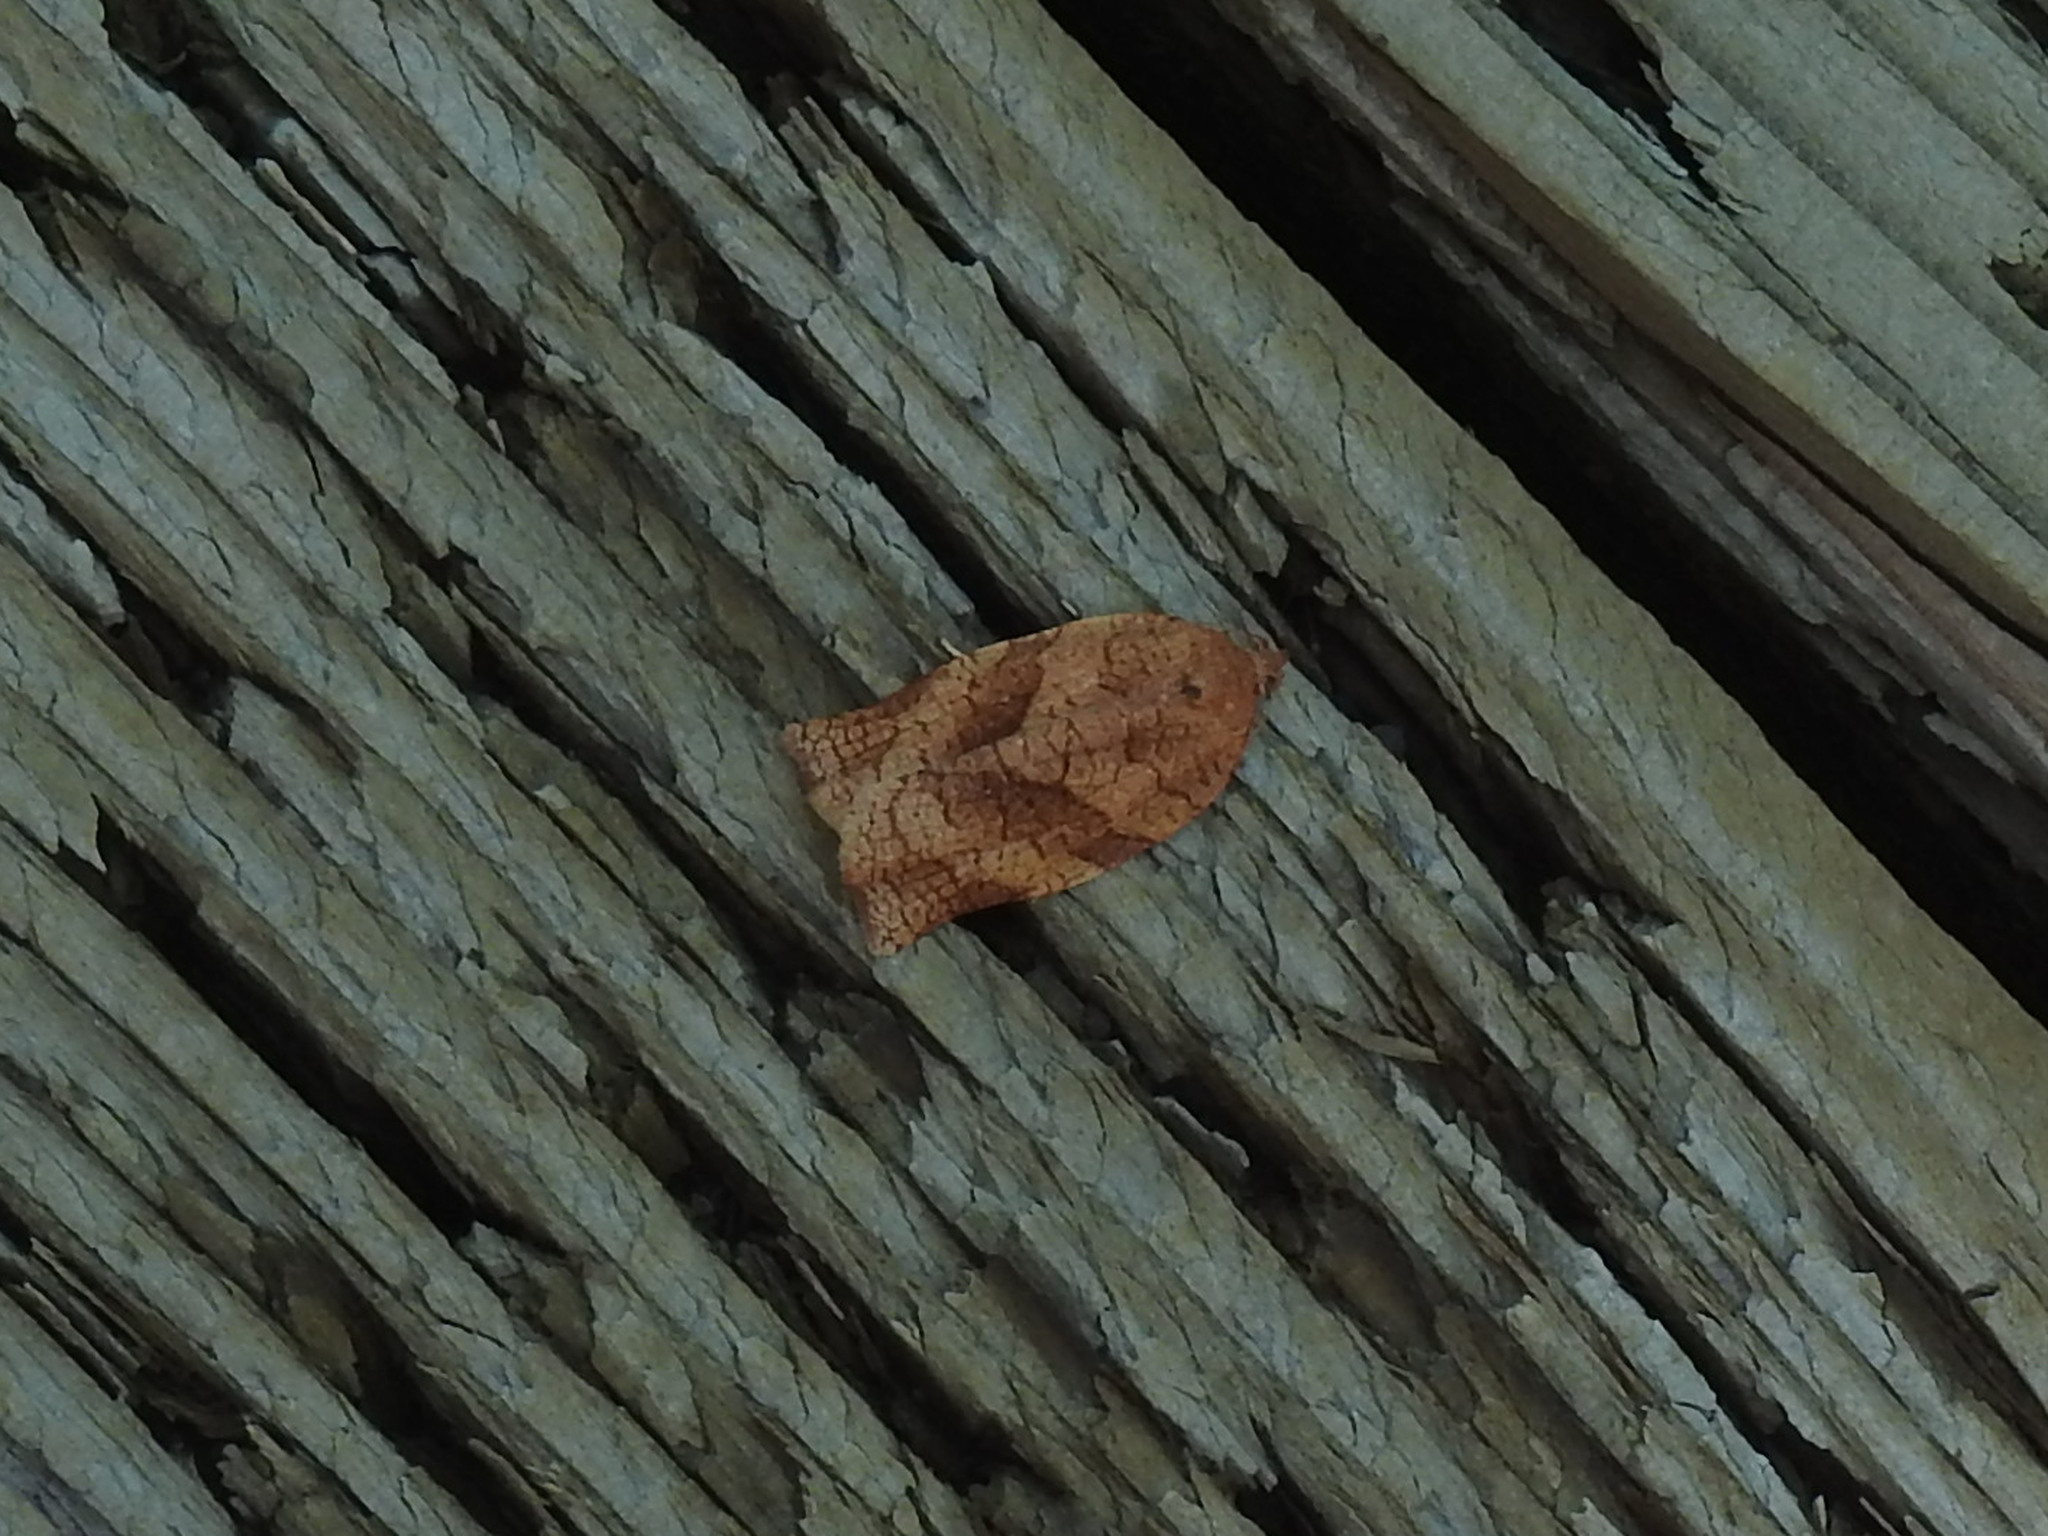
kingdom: Animalia
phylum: Arthropoda
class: Insecta
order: Lepidoptera
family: Tortricidae
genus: Choristoneura
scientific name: Choristoneura rosaceana
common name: Oblique-banded leafroller moth
